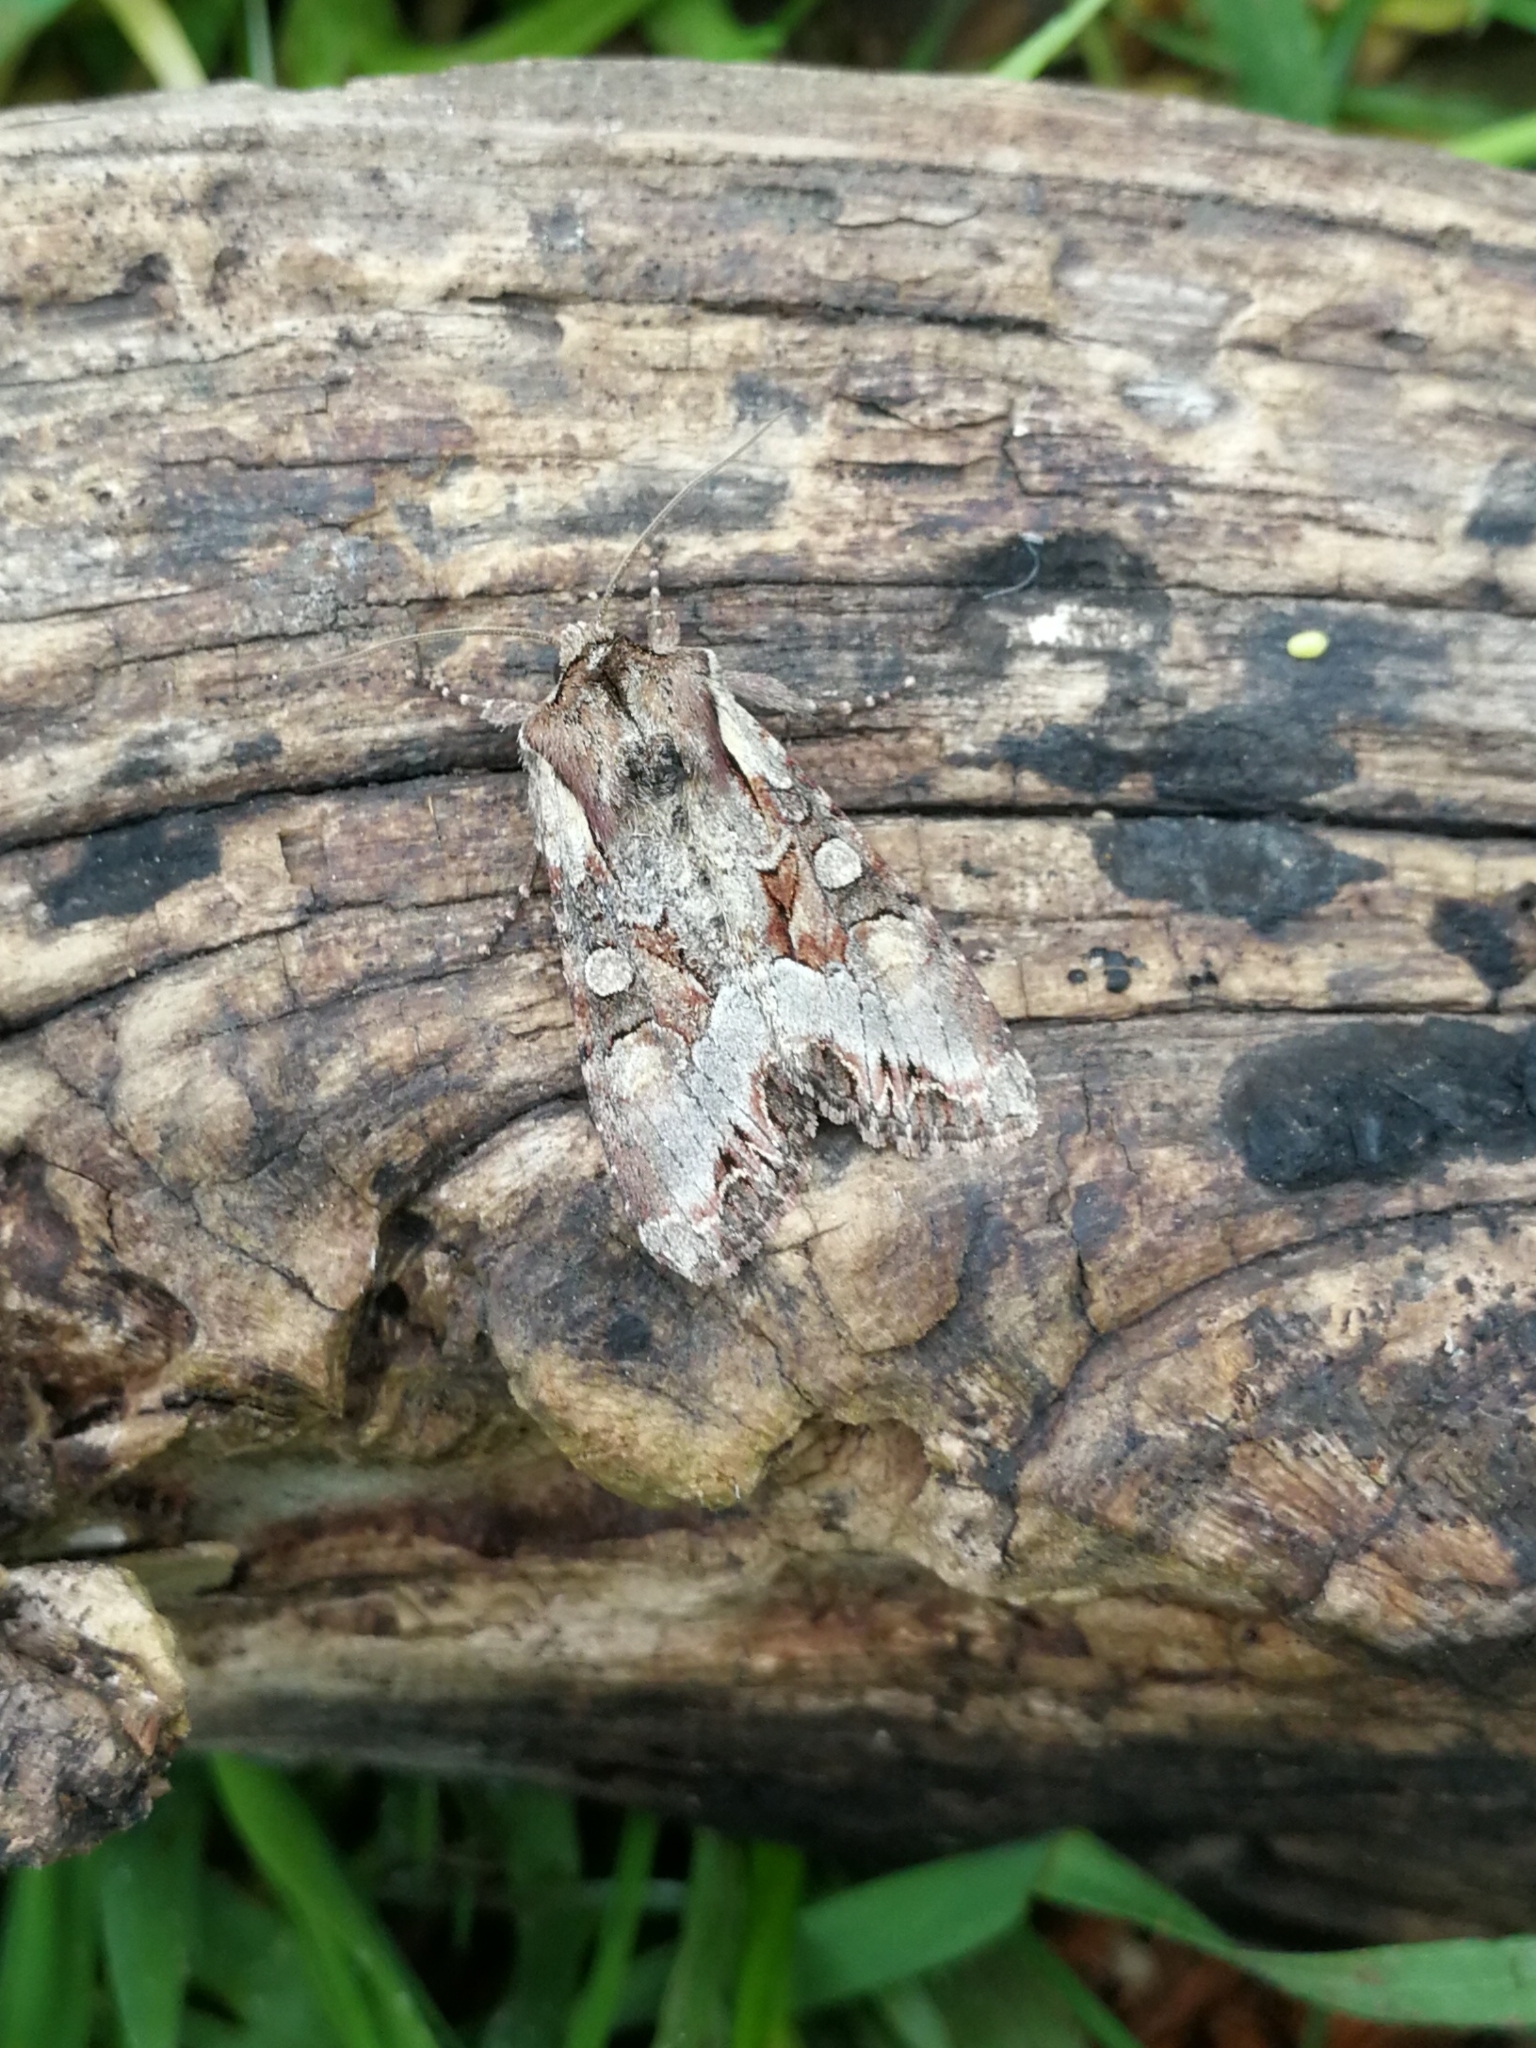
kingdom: Animalia
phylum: Arthropoda
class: Insecta
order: Lepidoptera
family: Noctuidae
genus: Lacanobia
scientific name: Lacanobia w-latinum
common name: Light brocade
